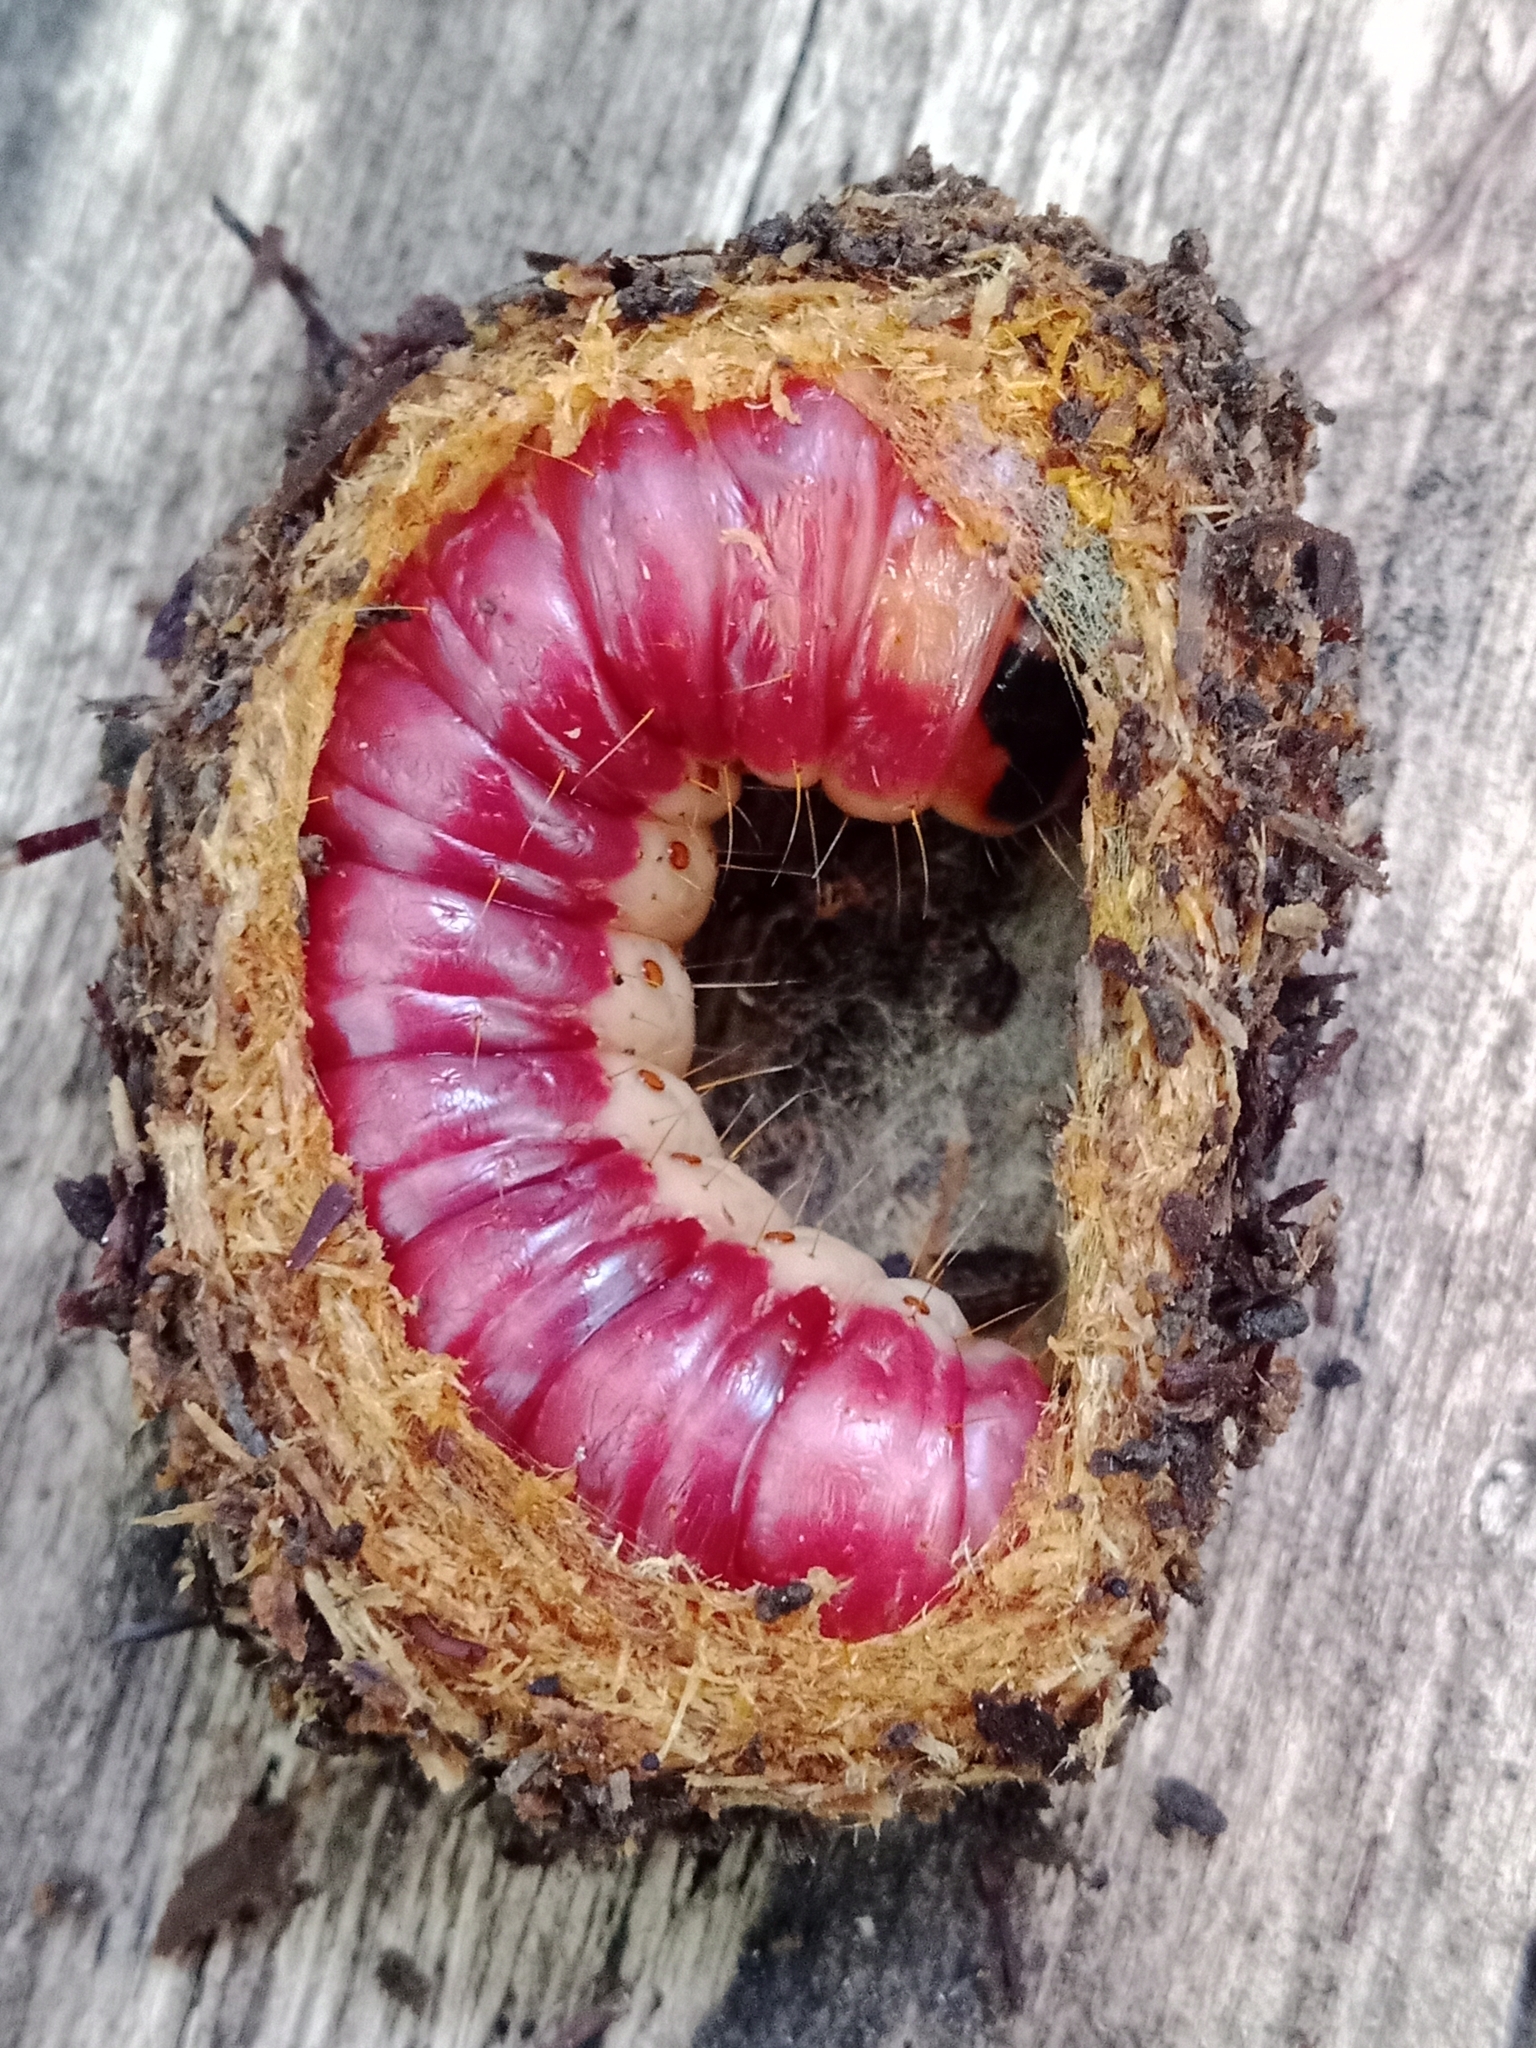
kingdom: Animalia
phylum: Arthropoda
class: Insecta
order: Lepidoptera
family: Cossidae
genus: Cossus
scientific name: Cossus cossus
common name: Goat moth
